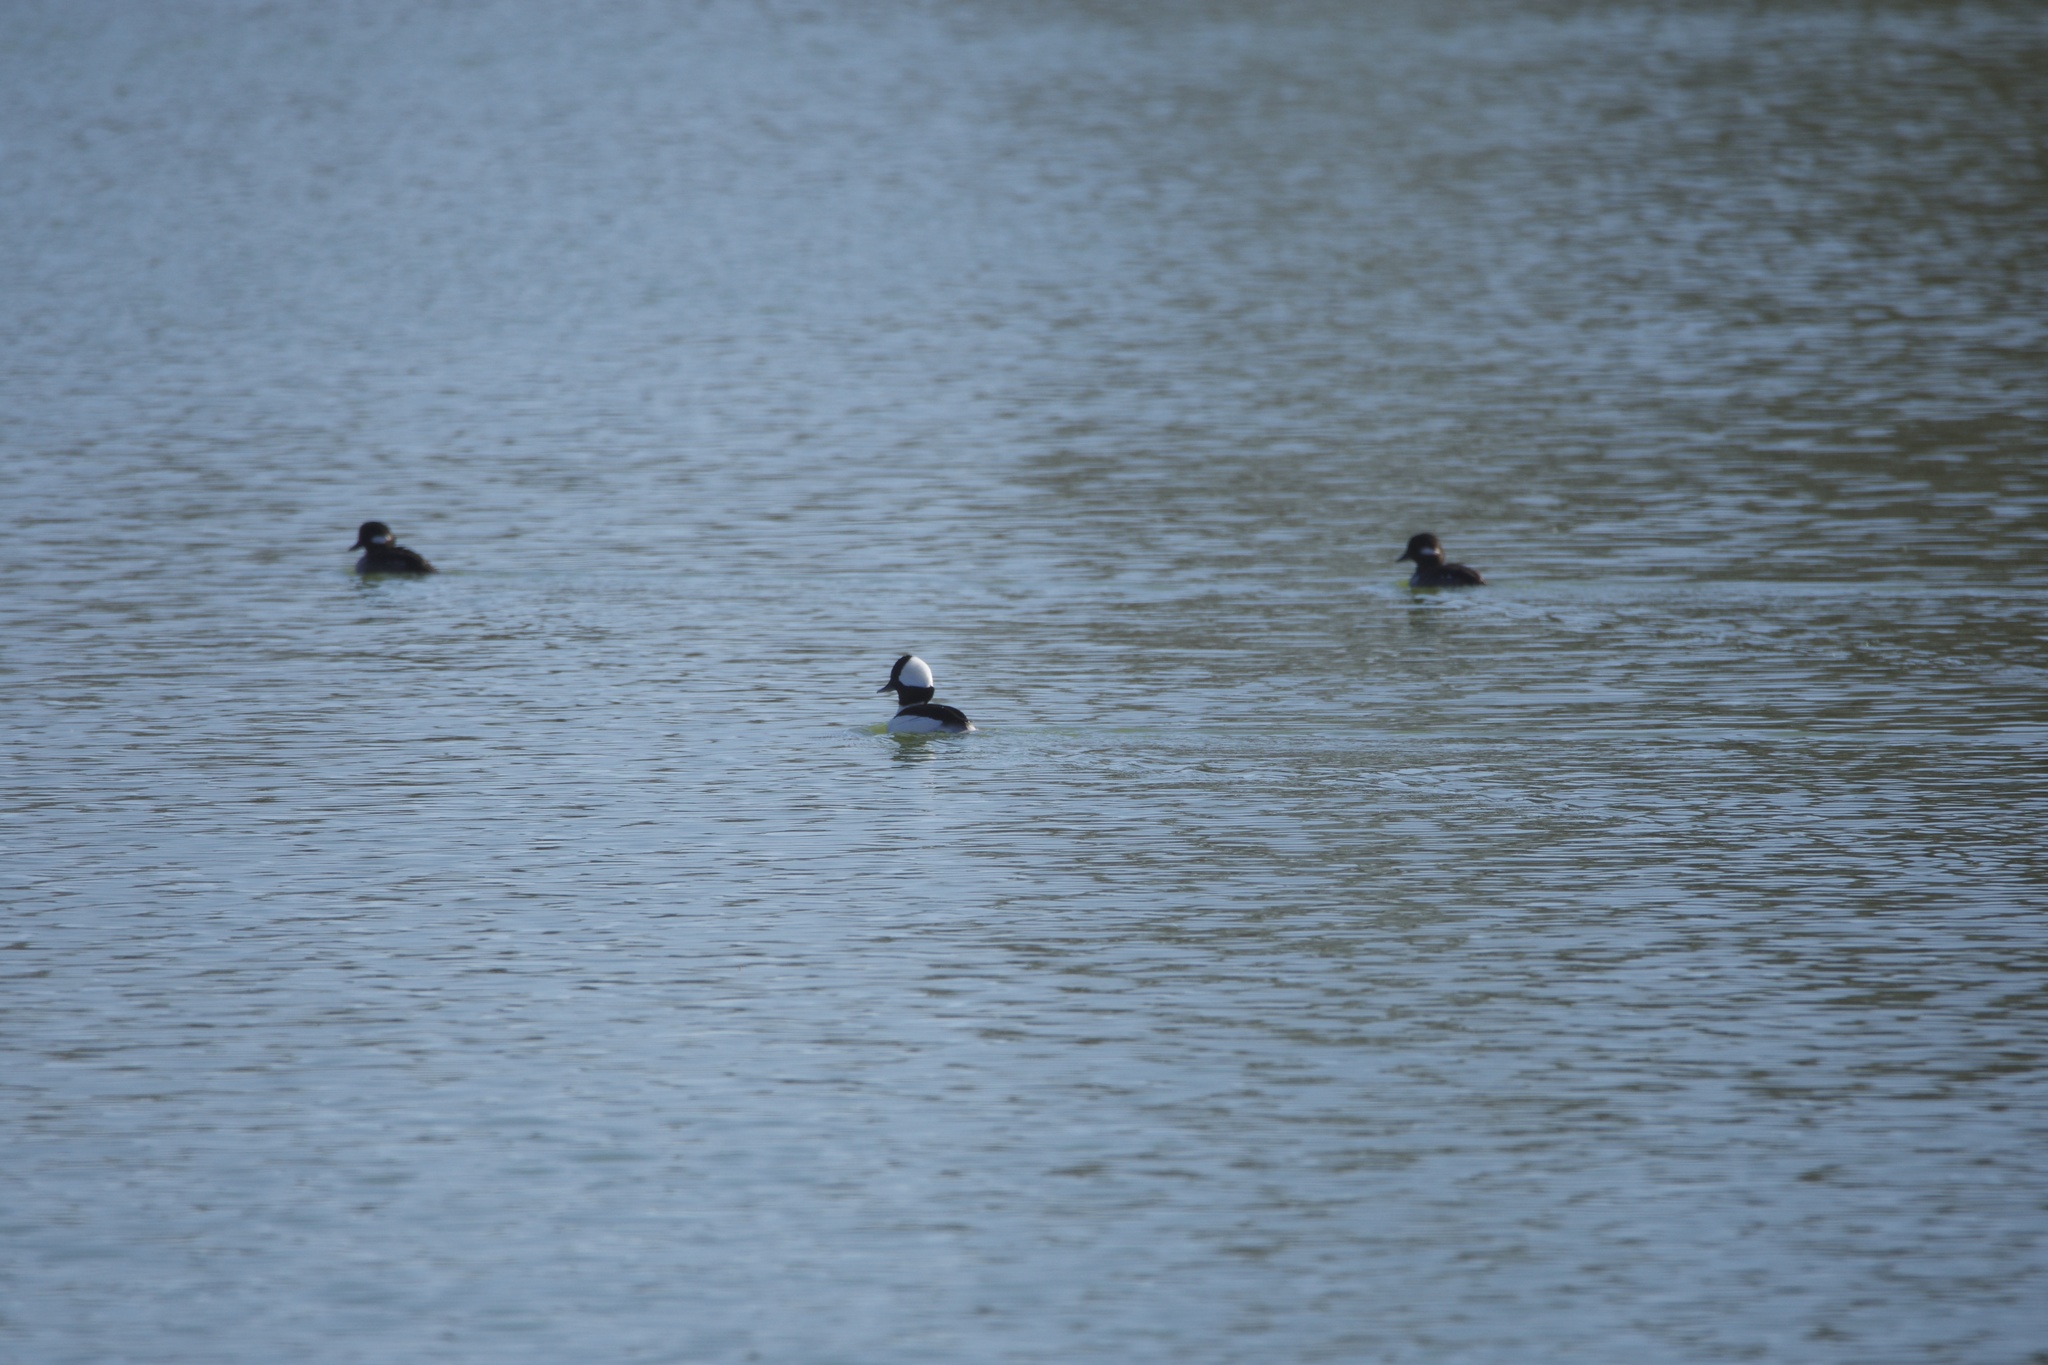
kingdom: Animalia
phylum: Chordata
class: Aves
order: Anseriformes
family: Anatidae
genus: Bucephala
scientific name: Bucephala albeola
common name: Bufflehead
